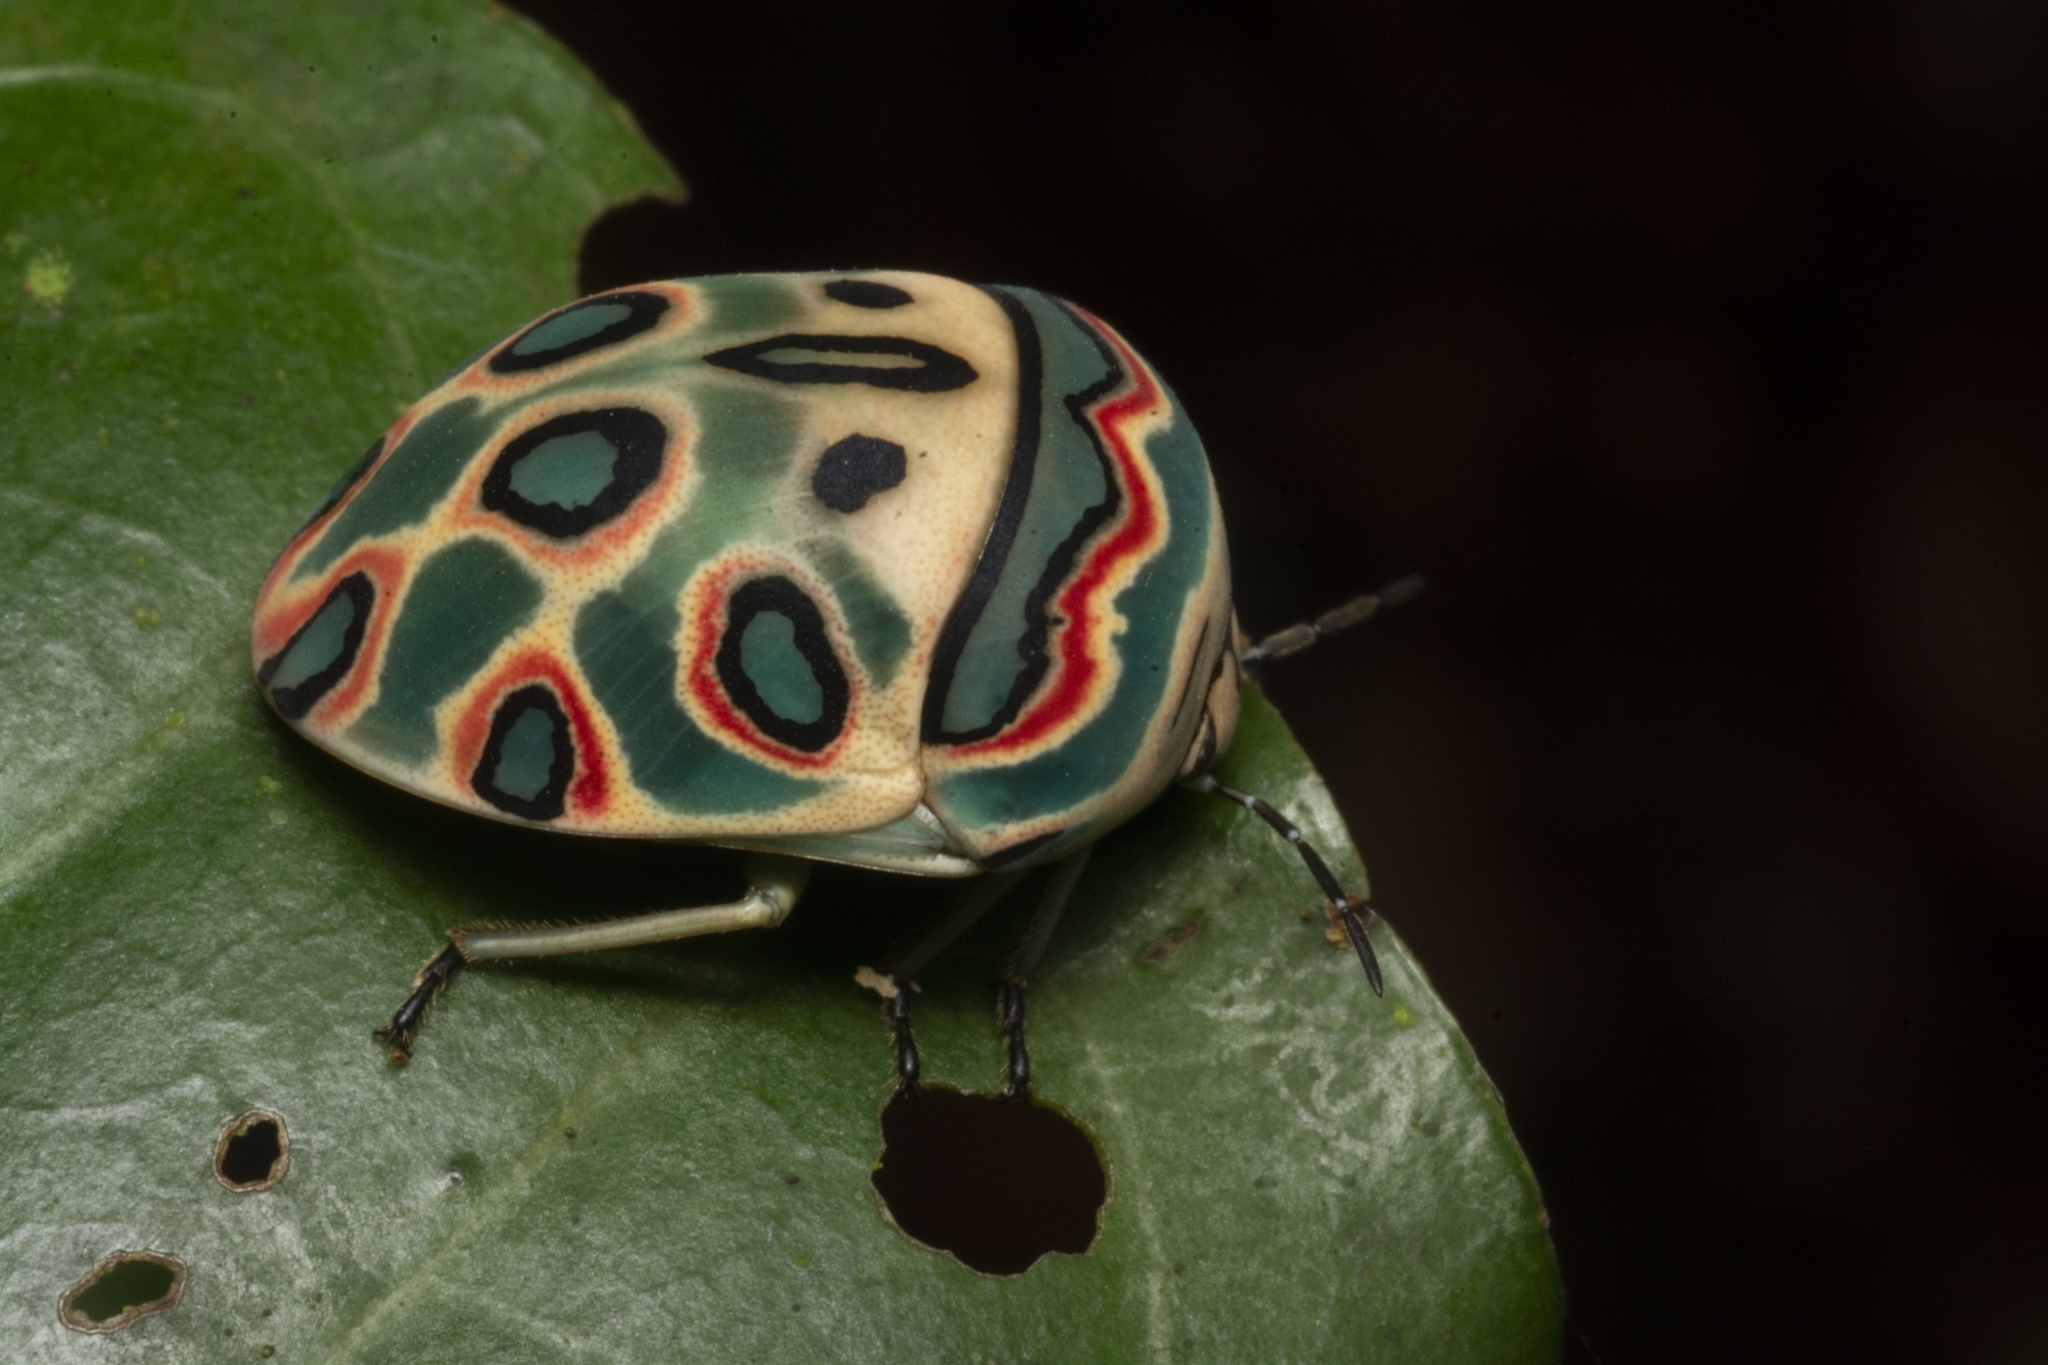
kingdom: Animalia
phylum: Arthropoda
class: Insecta
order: Hemiptera
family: Scutelleridae
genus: Sphaerocoris
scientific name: Sphaerocoris annulus
